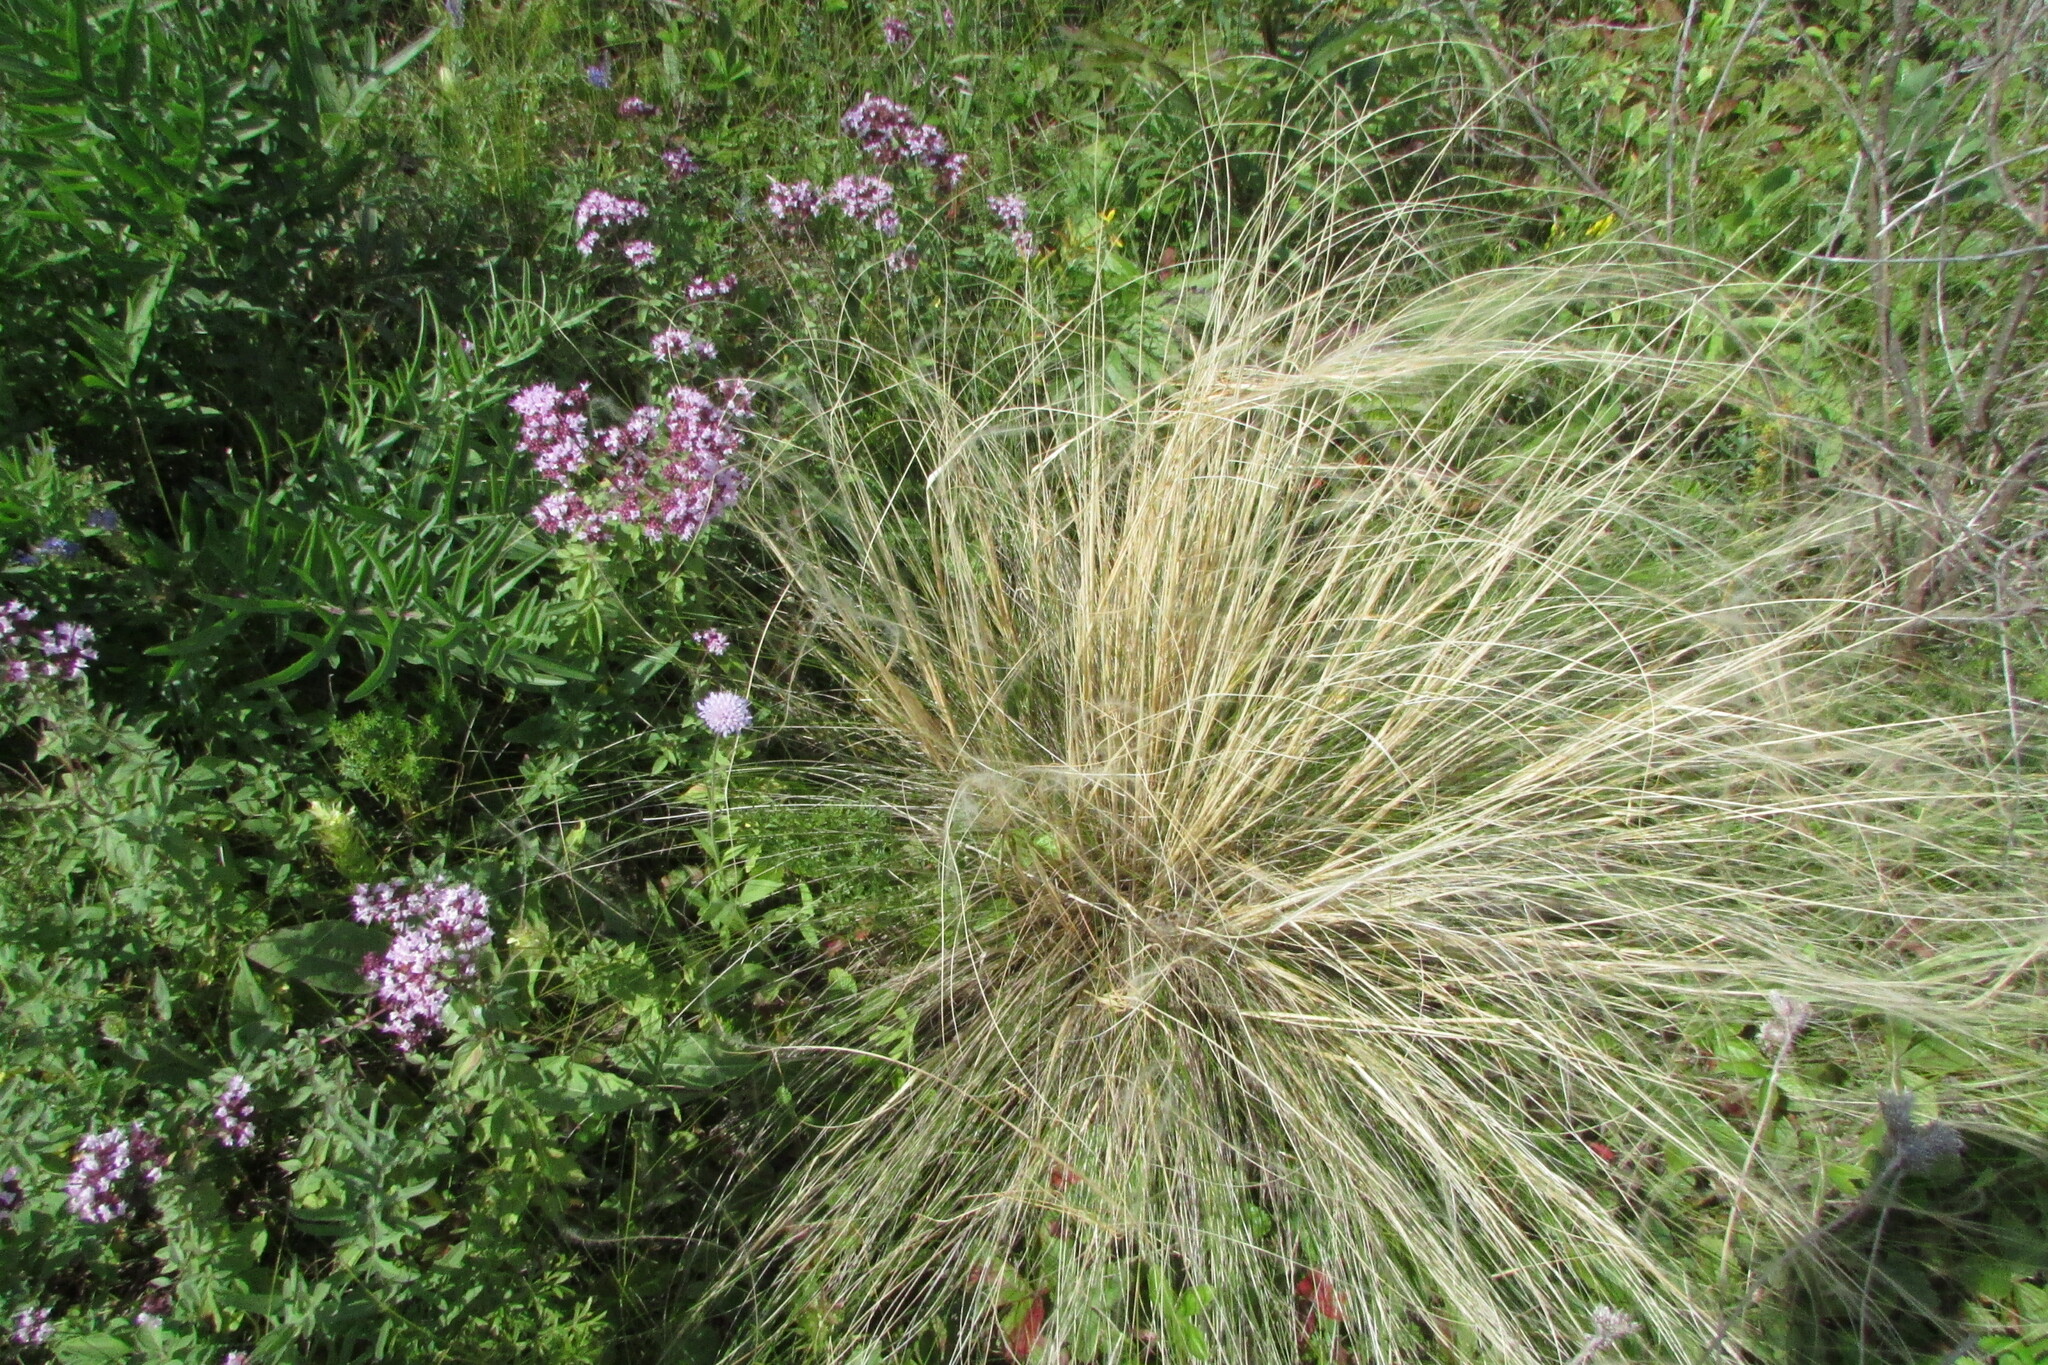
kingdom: Plantae
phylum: Tracheophyta
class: Liliopsida
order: Poales
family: Poaceae
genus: Stipa
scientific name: Stipa tirsa
